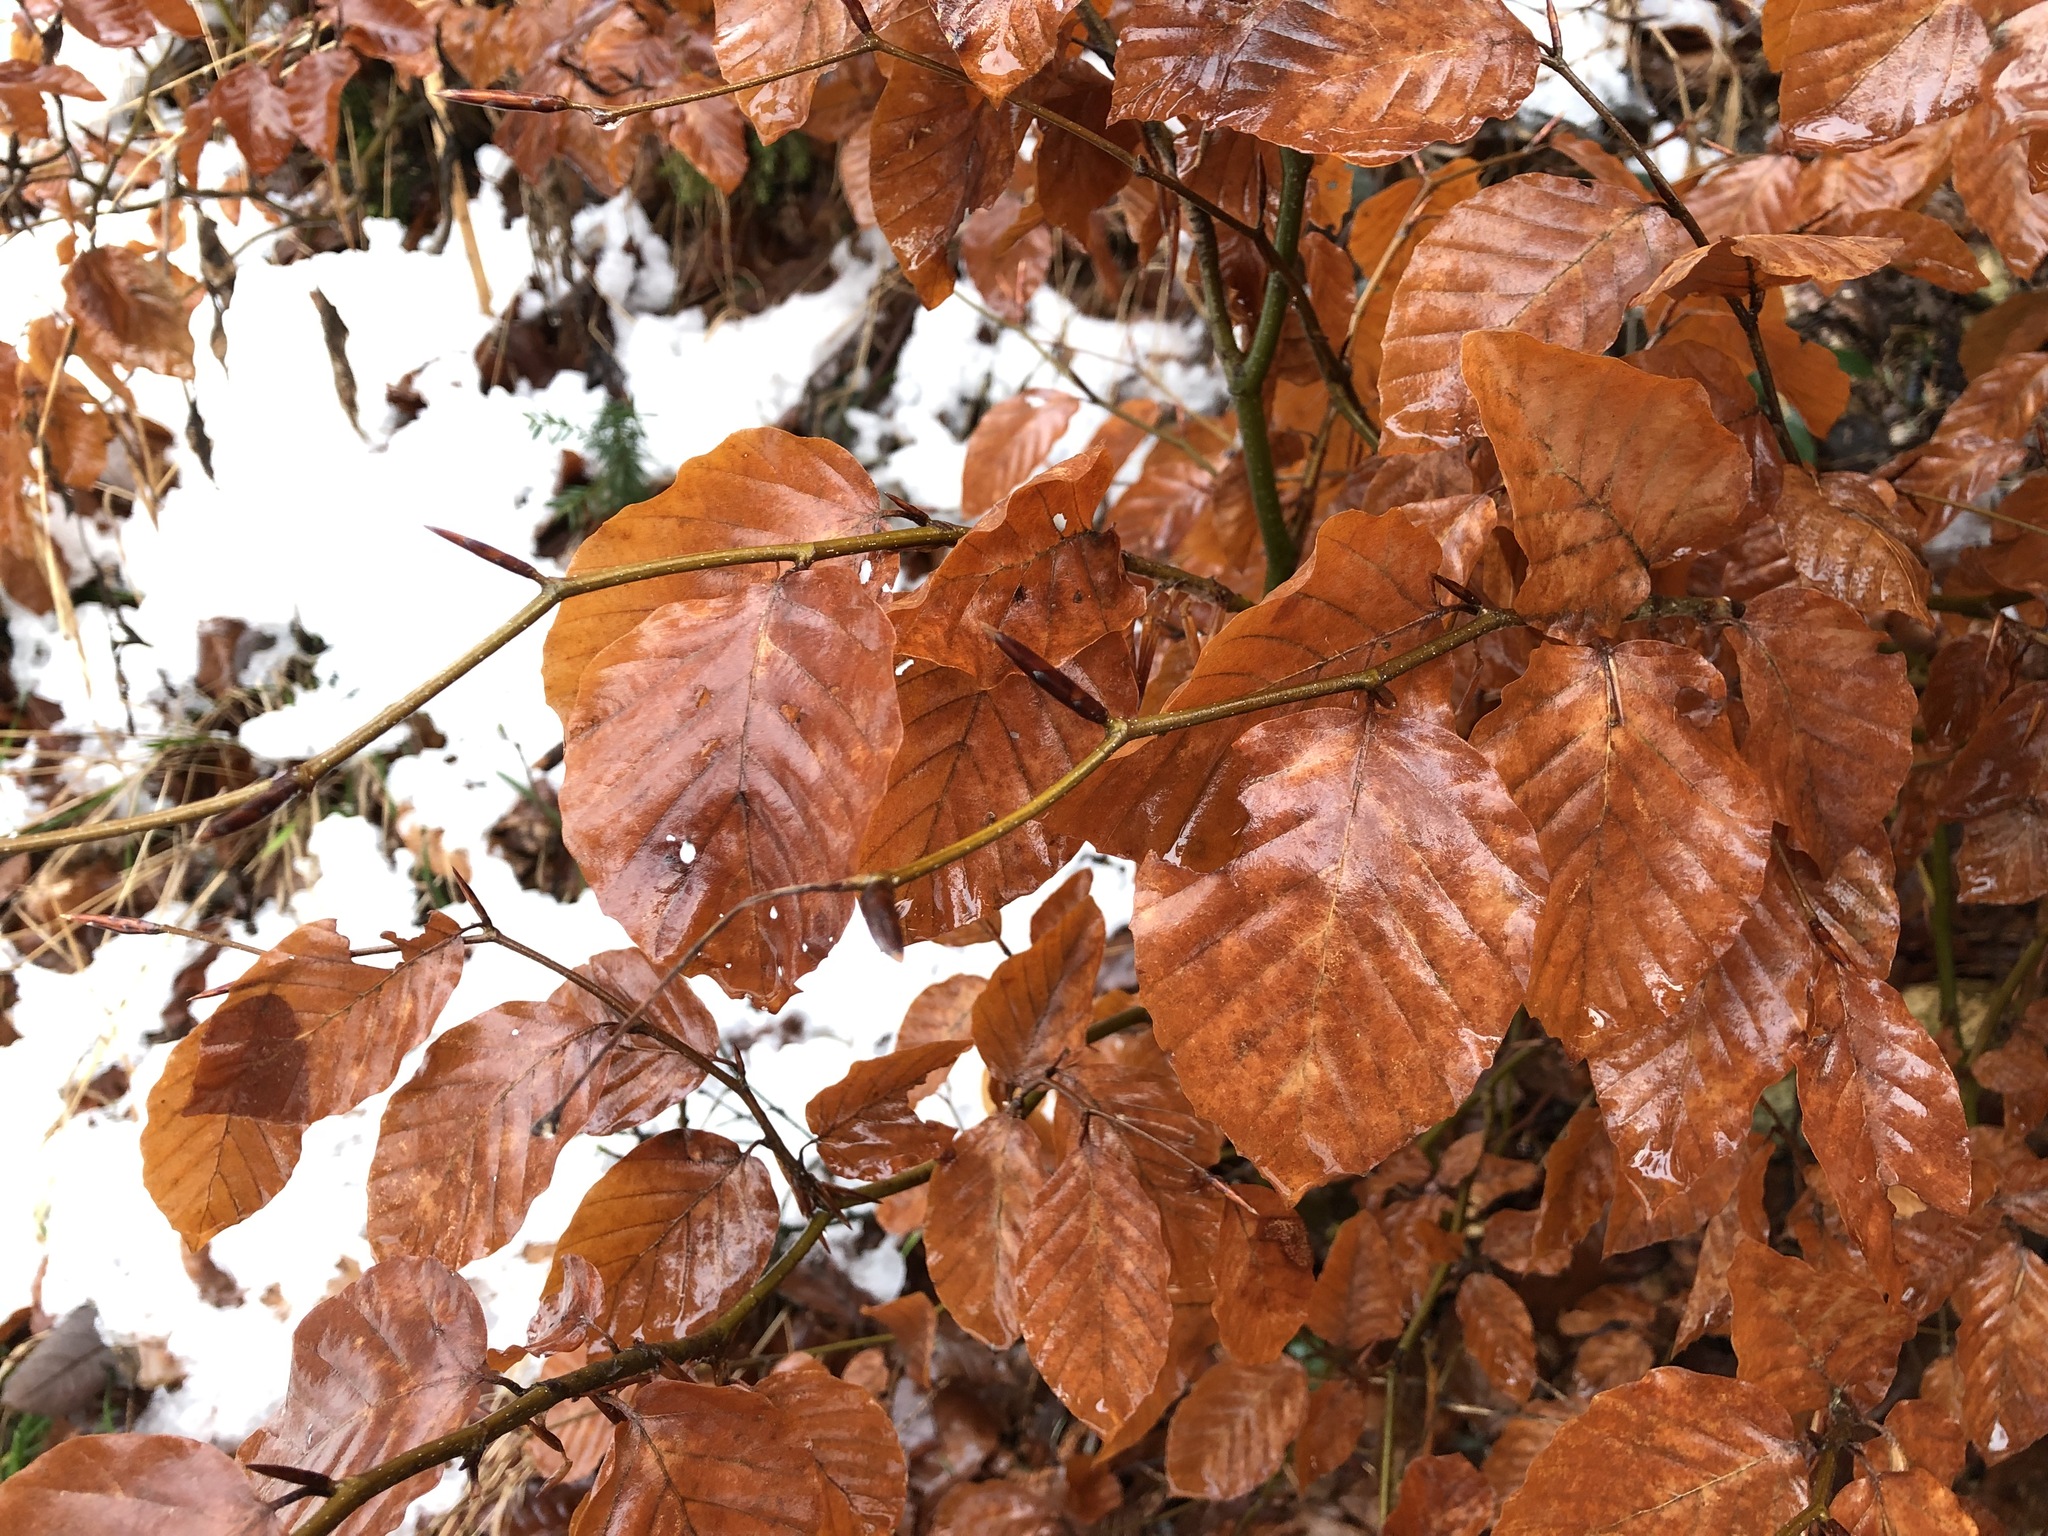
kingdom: Plantae
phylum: Tracheophyta
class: Magnoliopsida
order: Fagales
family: Fagaceae
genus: Fagus
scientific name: Fagus sylvatica
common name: Beech
